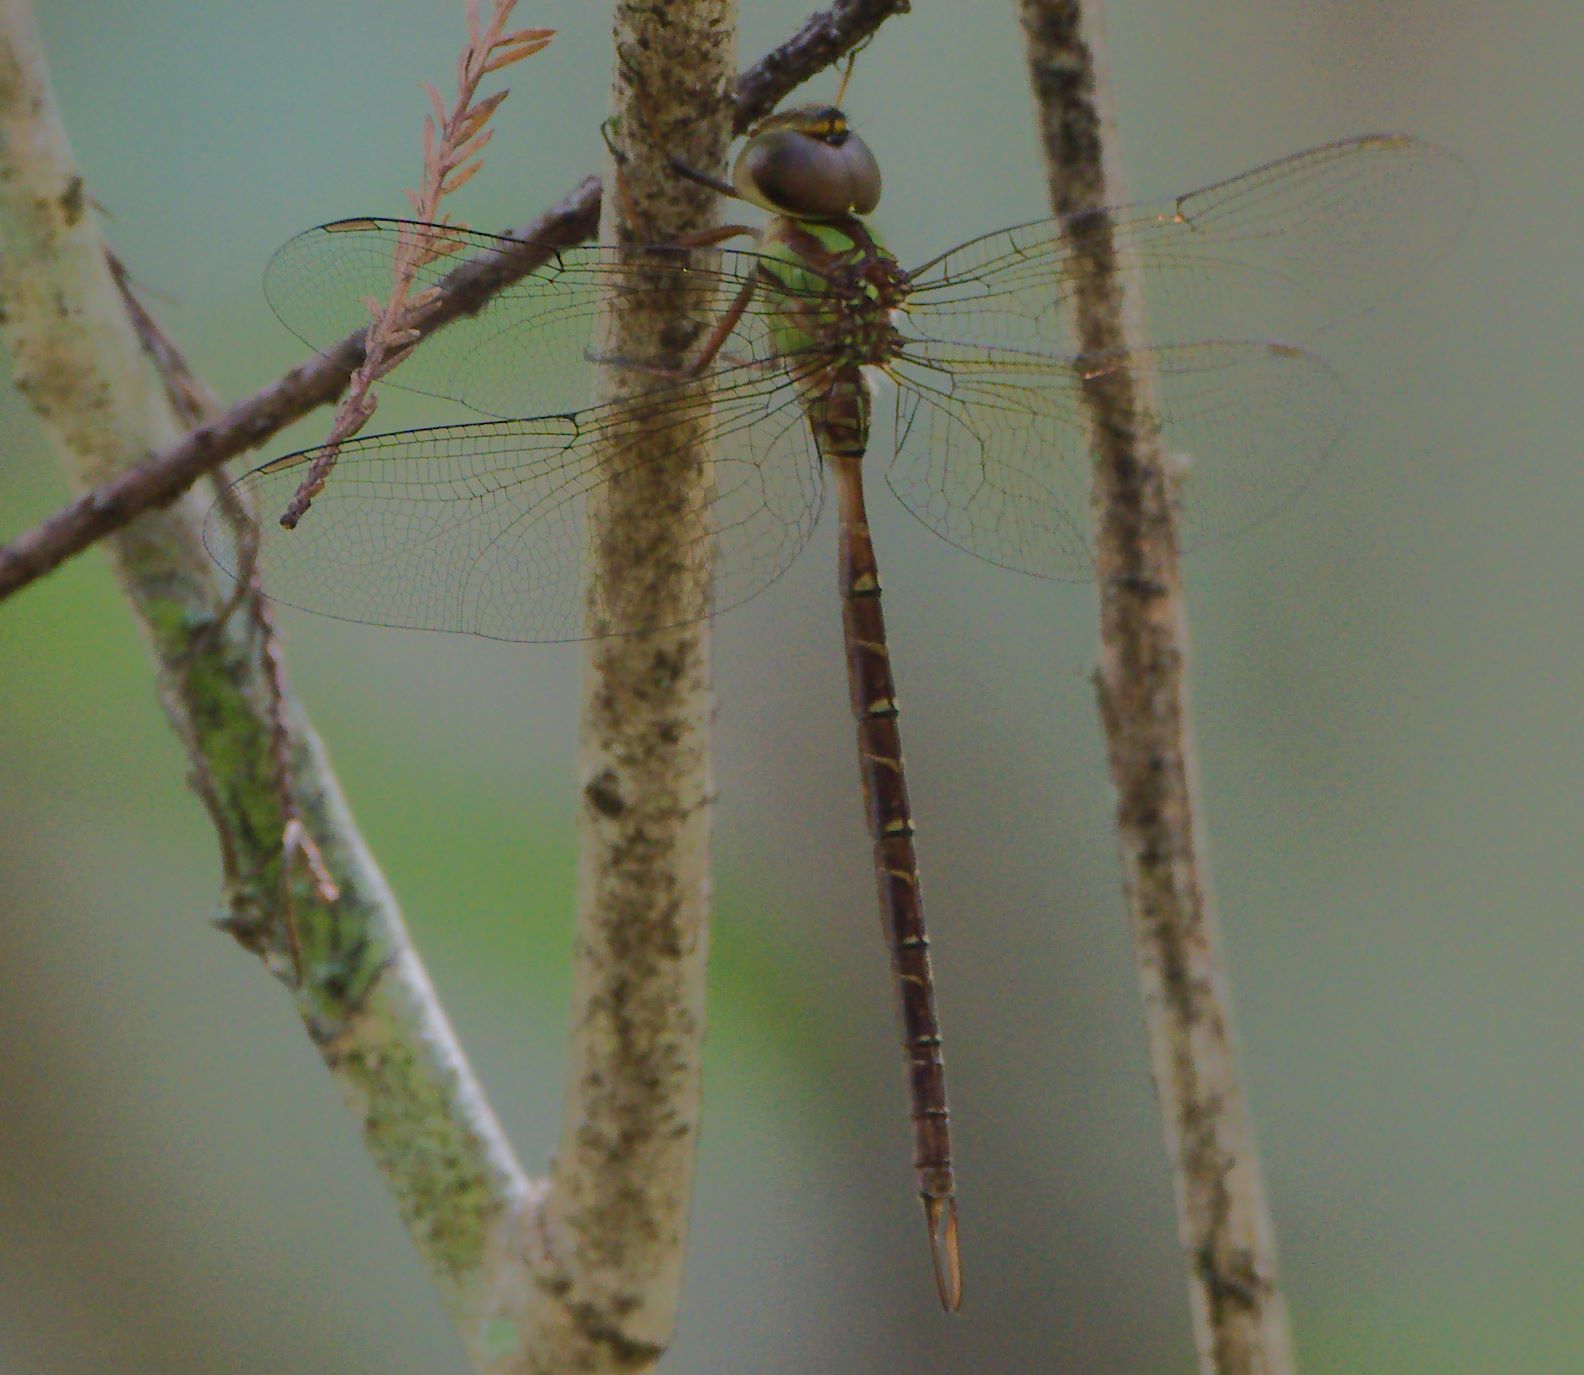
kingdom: Animalia
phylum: Arthropoda
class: Insecta
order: Odonata
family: Aeshnidae
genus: Triacanthagyna
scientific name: Triacanthagyna trifida
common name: Phantom darner
